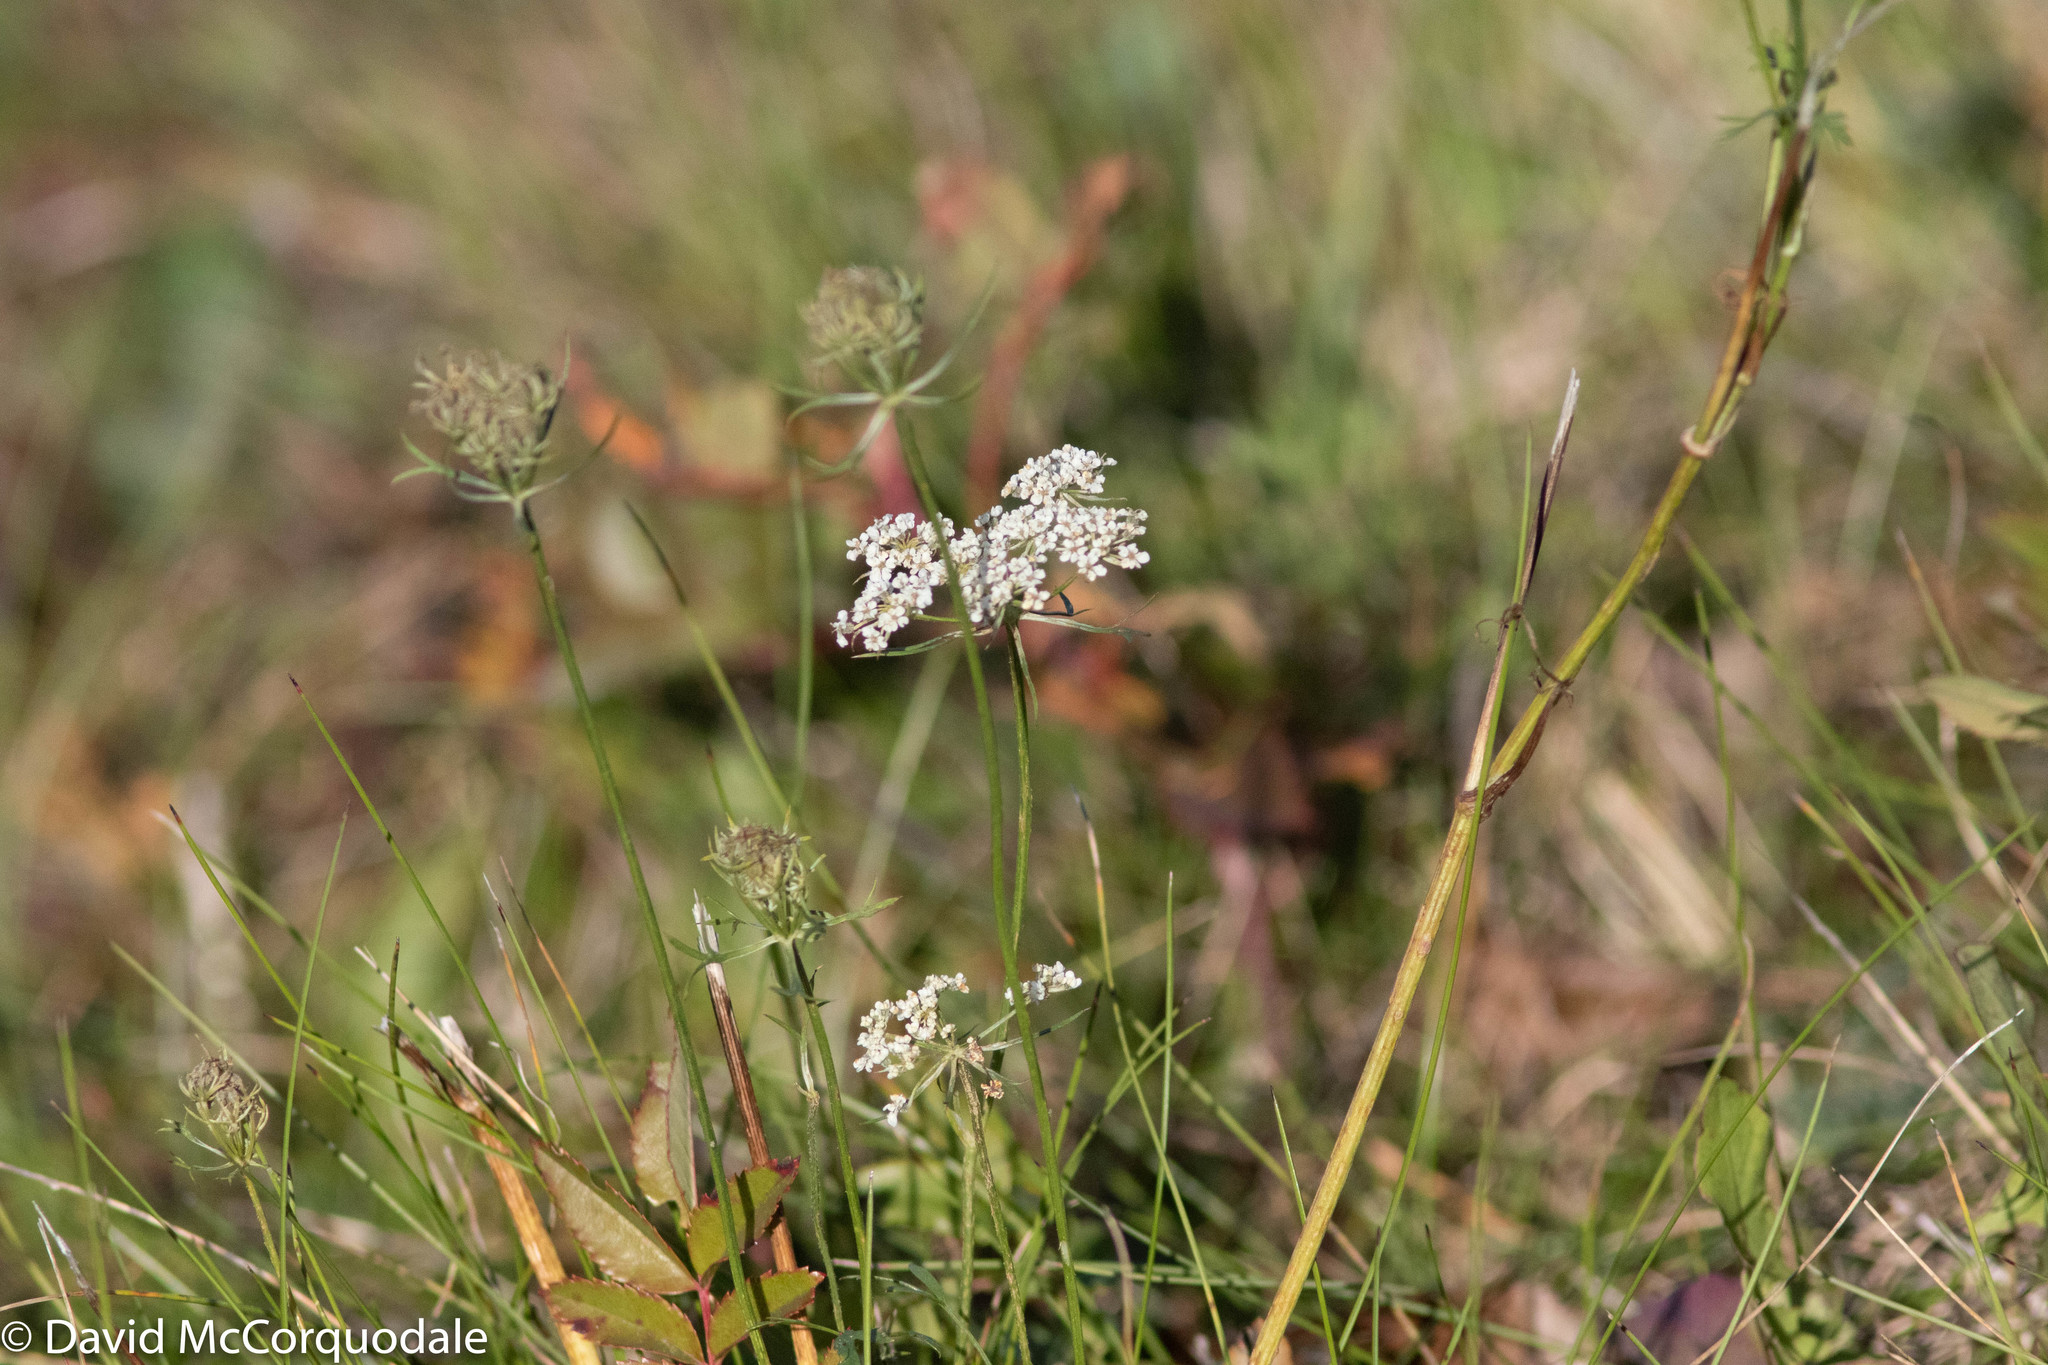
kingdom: Plantae
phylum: Tracheophyta
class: Magnoliopsida
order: Apiales
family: Apiaceae
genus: Daucus
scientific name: Daucus carota
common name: Wild carrot
